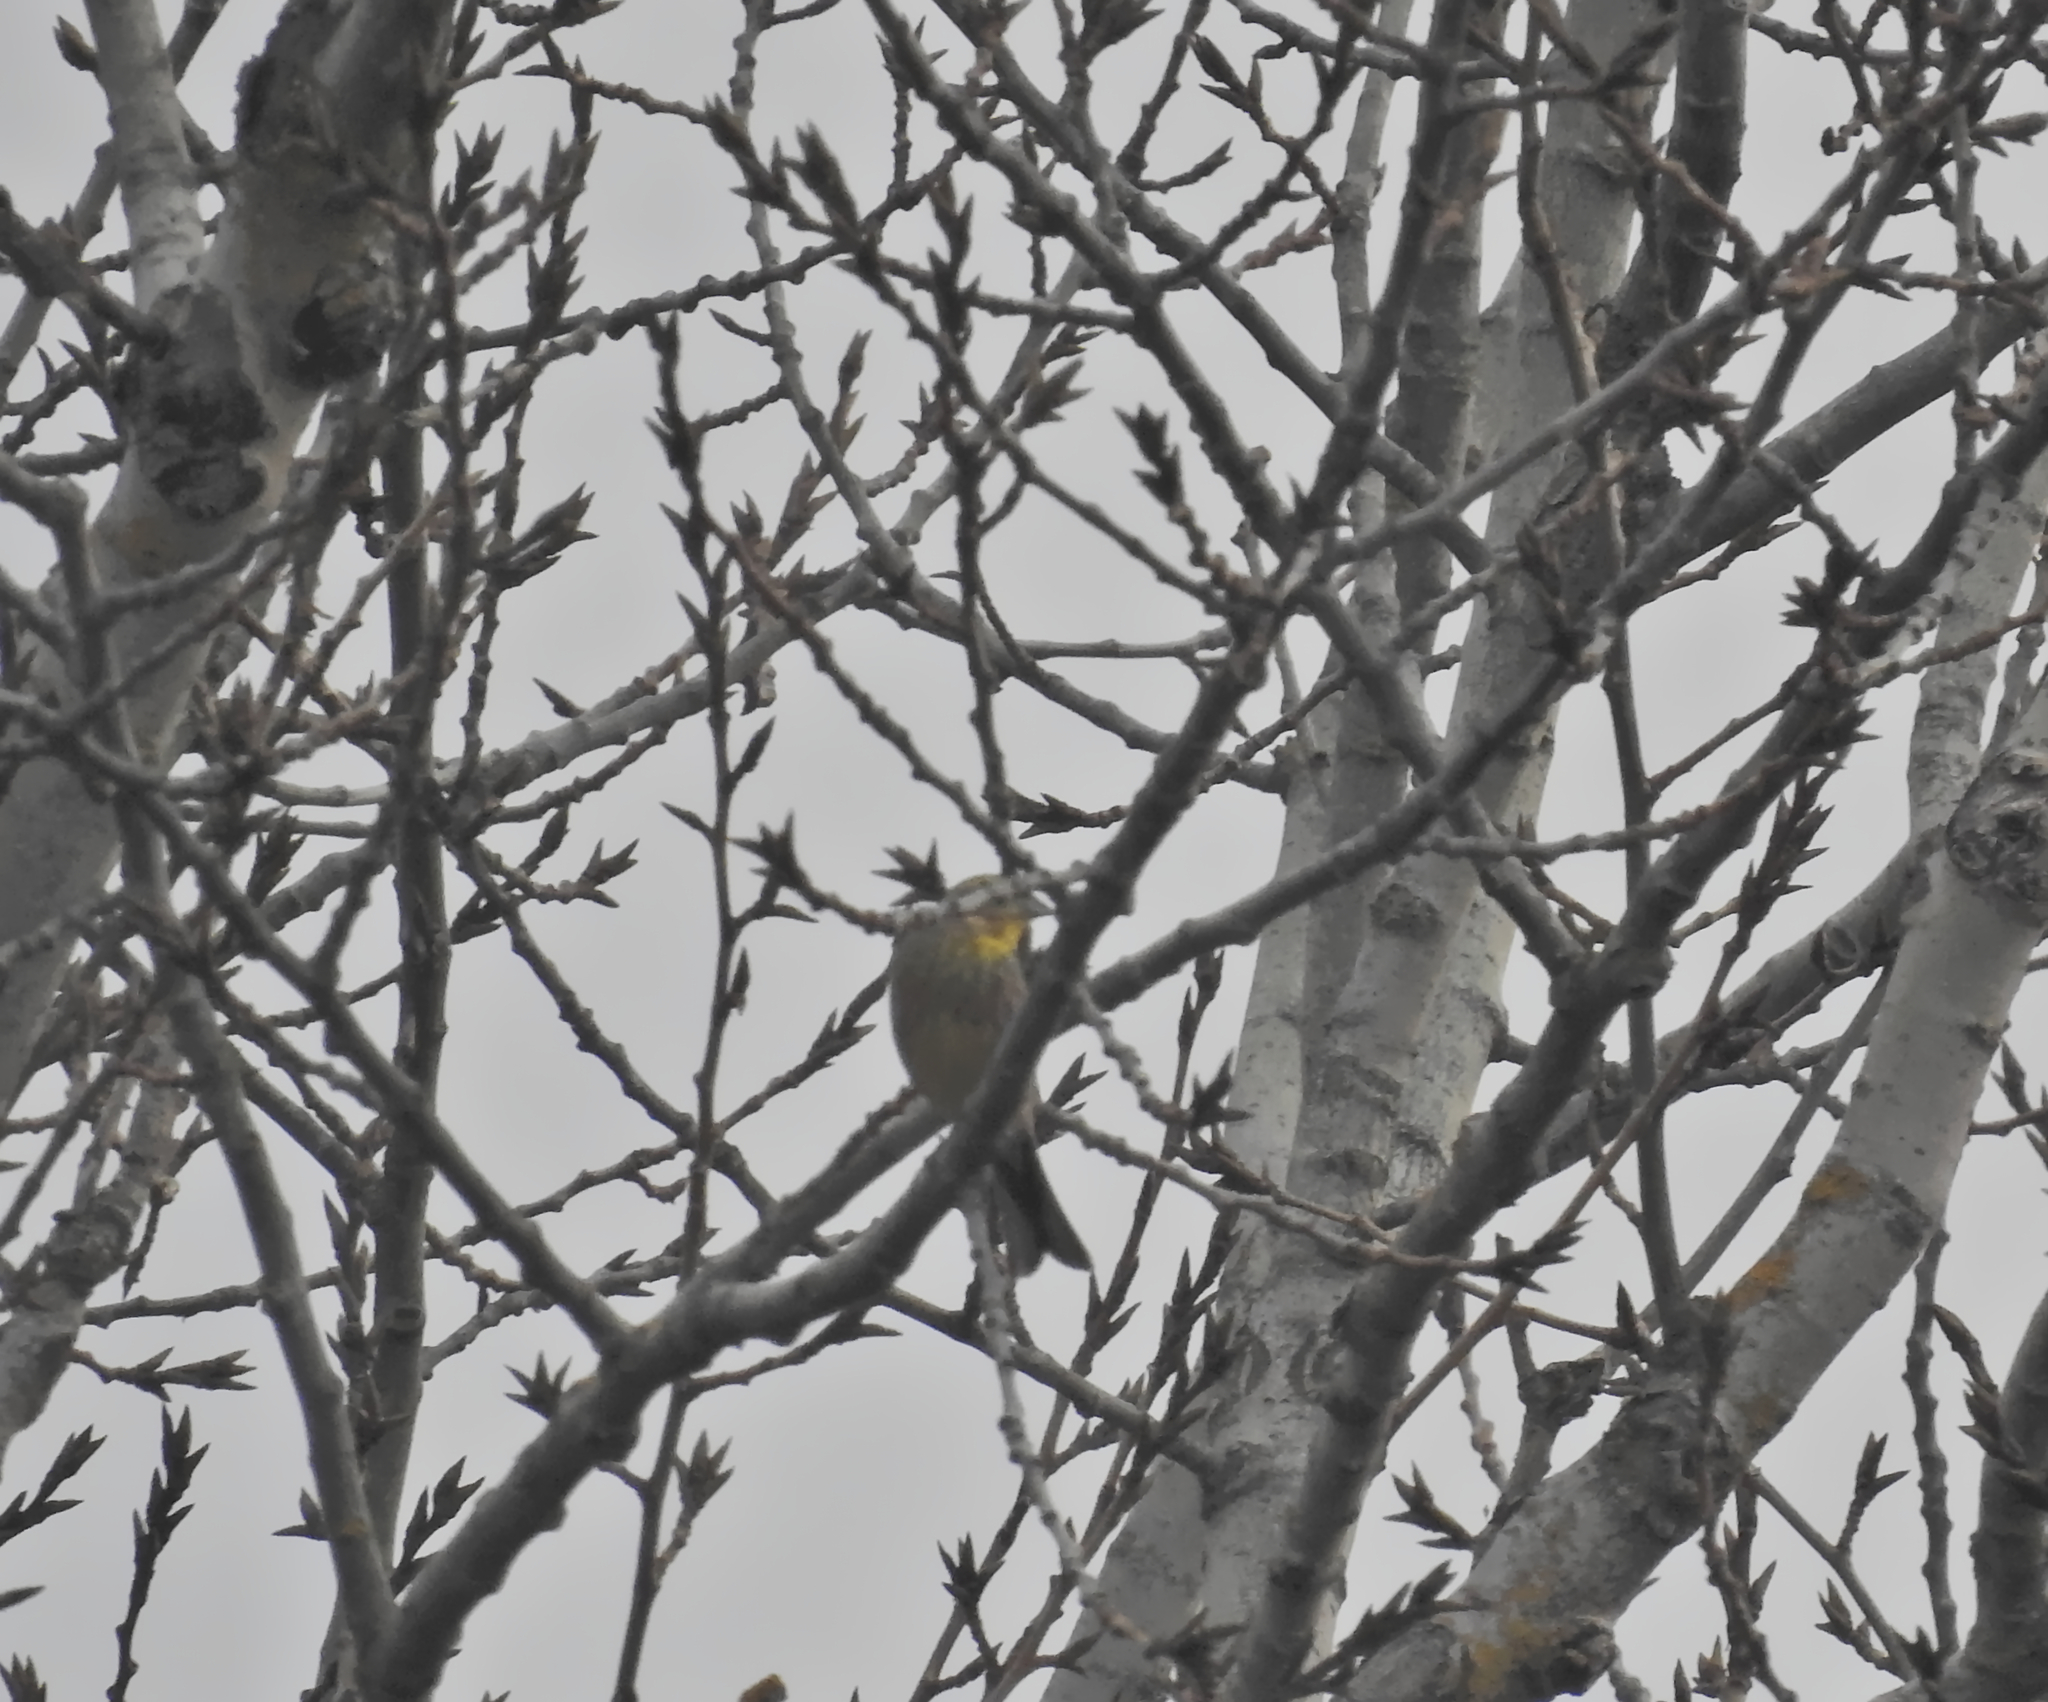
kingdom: Animalia
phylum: Chordata
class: Aves
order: Passeriformes
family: Emberizidae
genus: Emberiza
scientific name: Emberiza citrinella
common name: Yellowhammer
